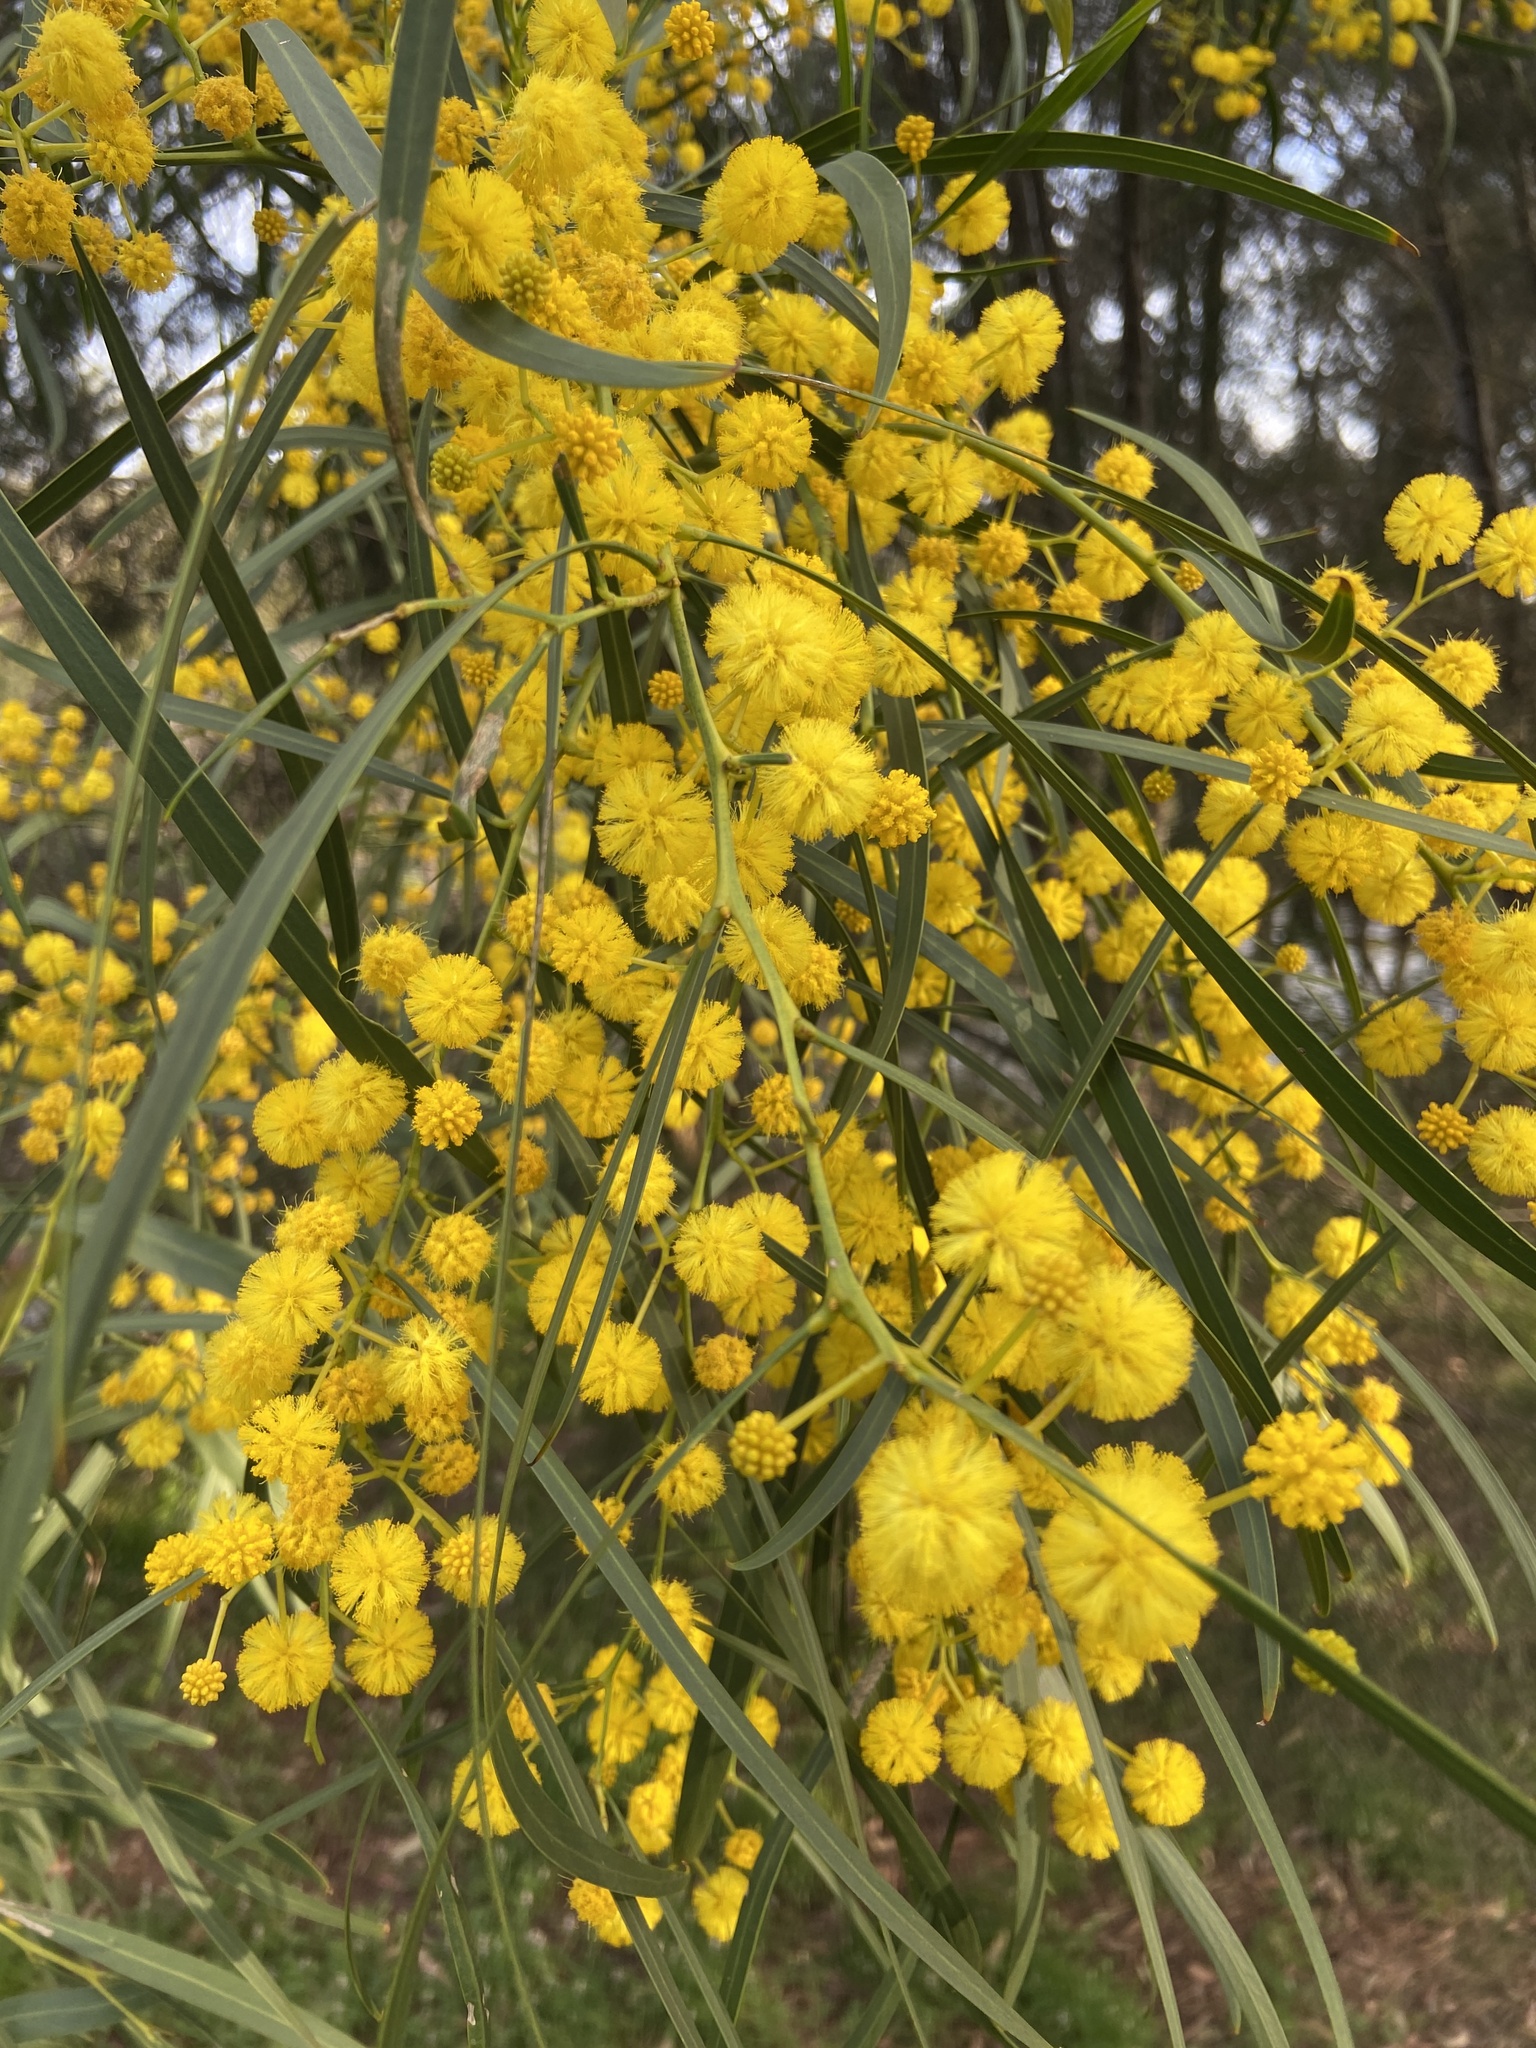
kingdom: Plantae
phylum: Tracheophyta
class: Magnoliopsida
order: Fabales
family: Fabaceae
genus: Acacia
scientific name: Acacia saligna
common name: Orange wattle
